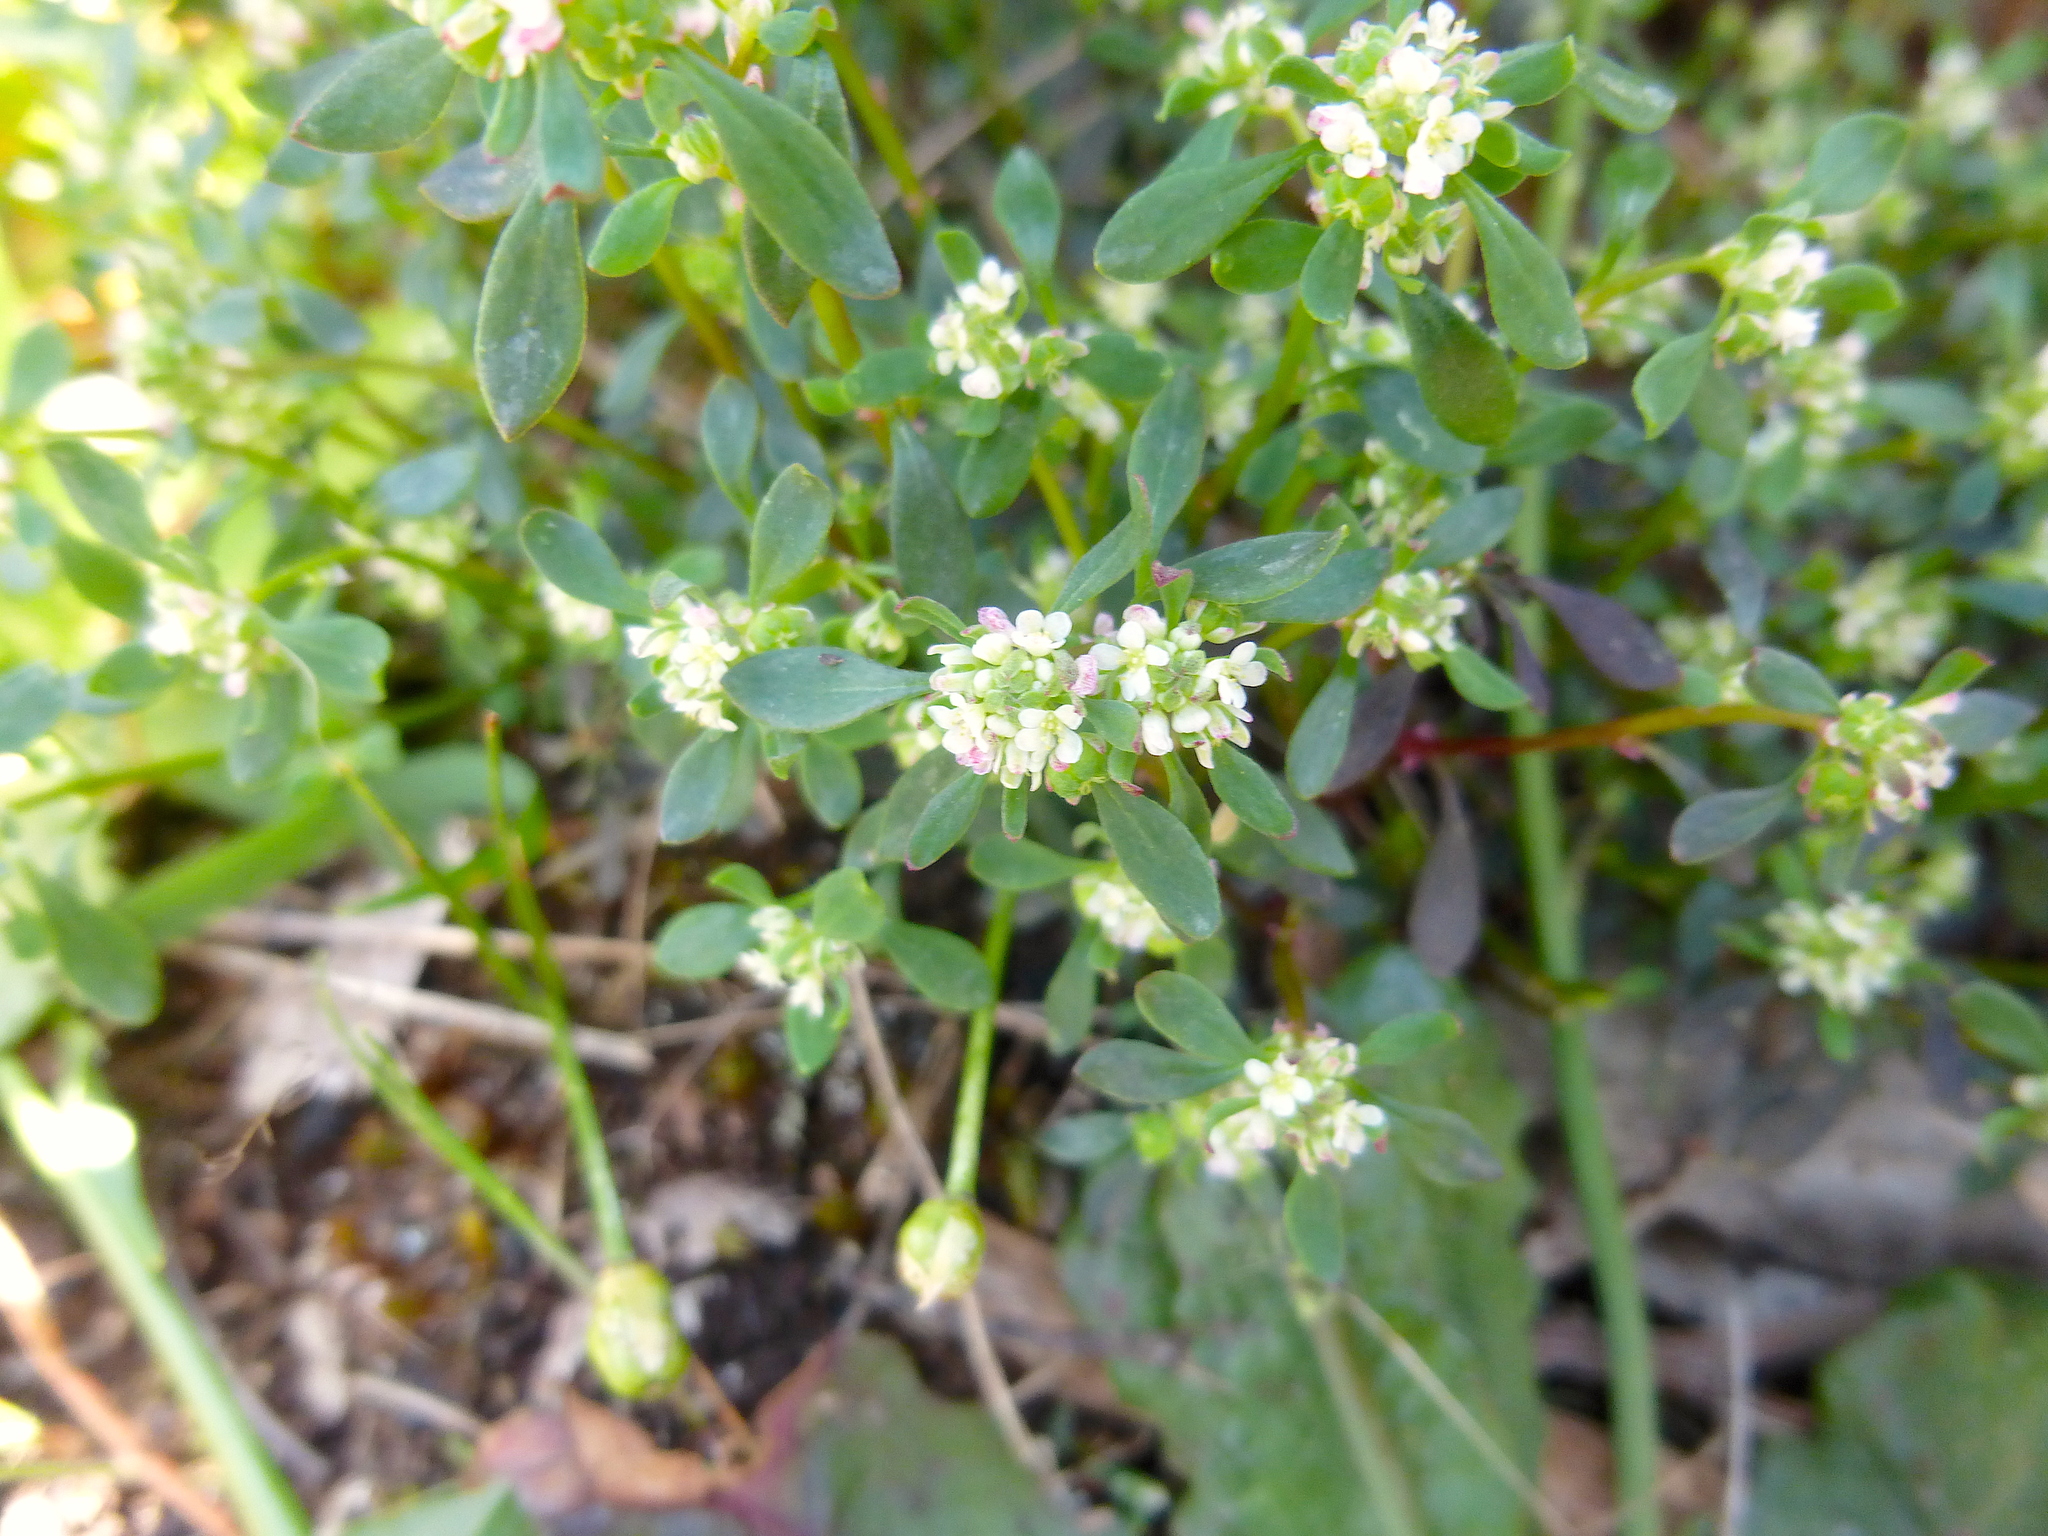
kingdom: Plantae
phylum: Tracheophyta
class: Magnoliopsida
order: Malpighiales
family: Phyllanthaceae
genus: Poranthera
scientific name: Poranthera microphylla
